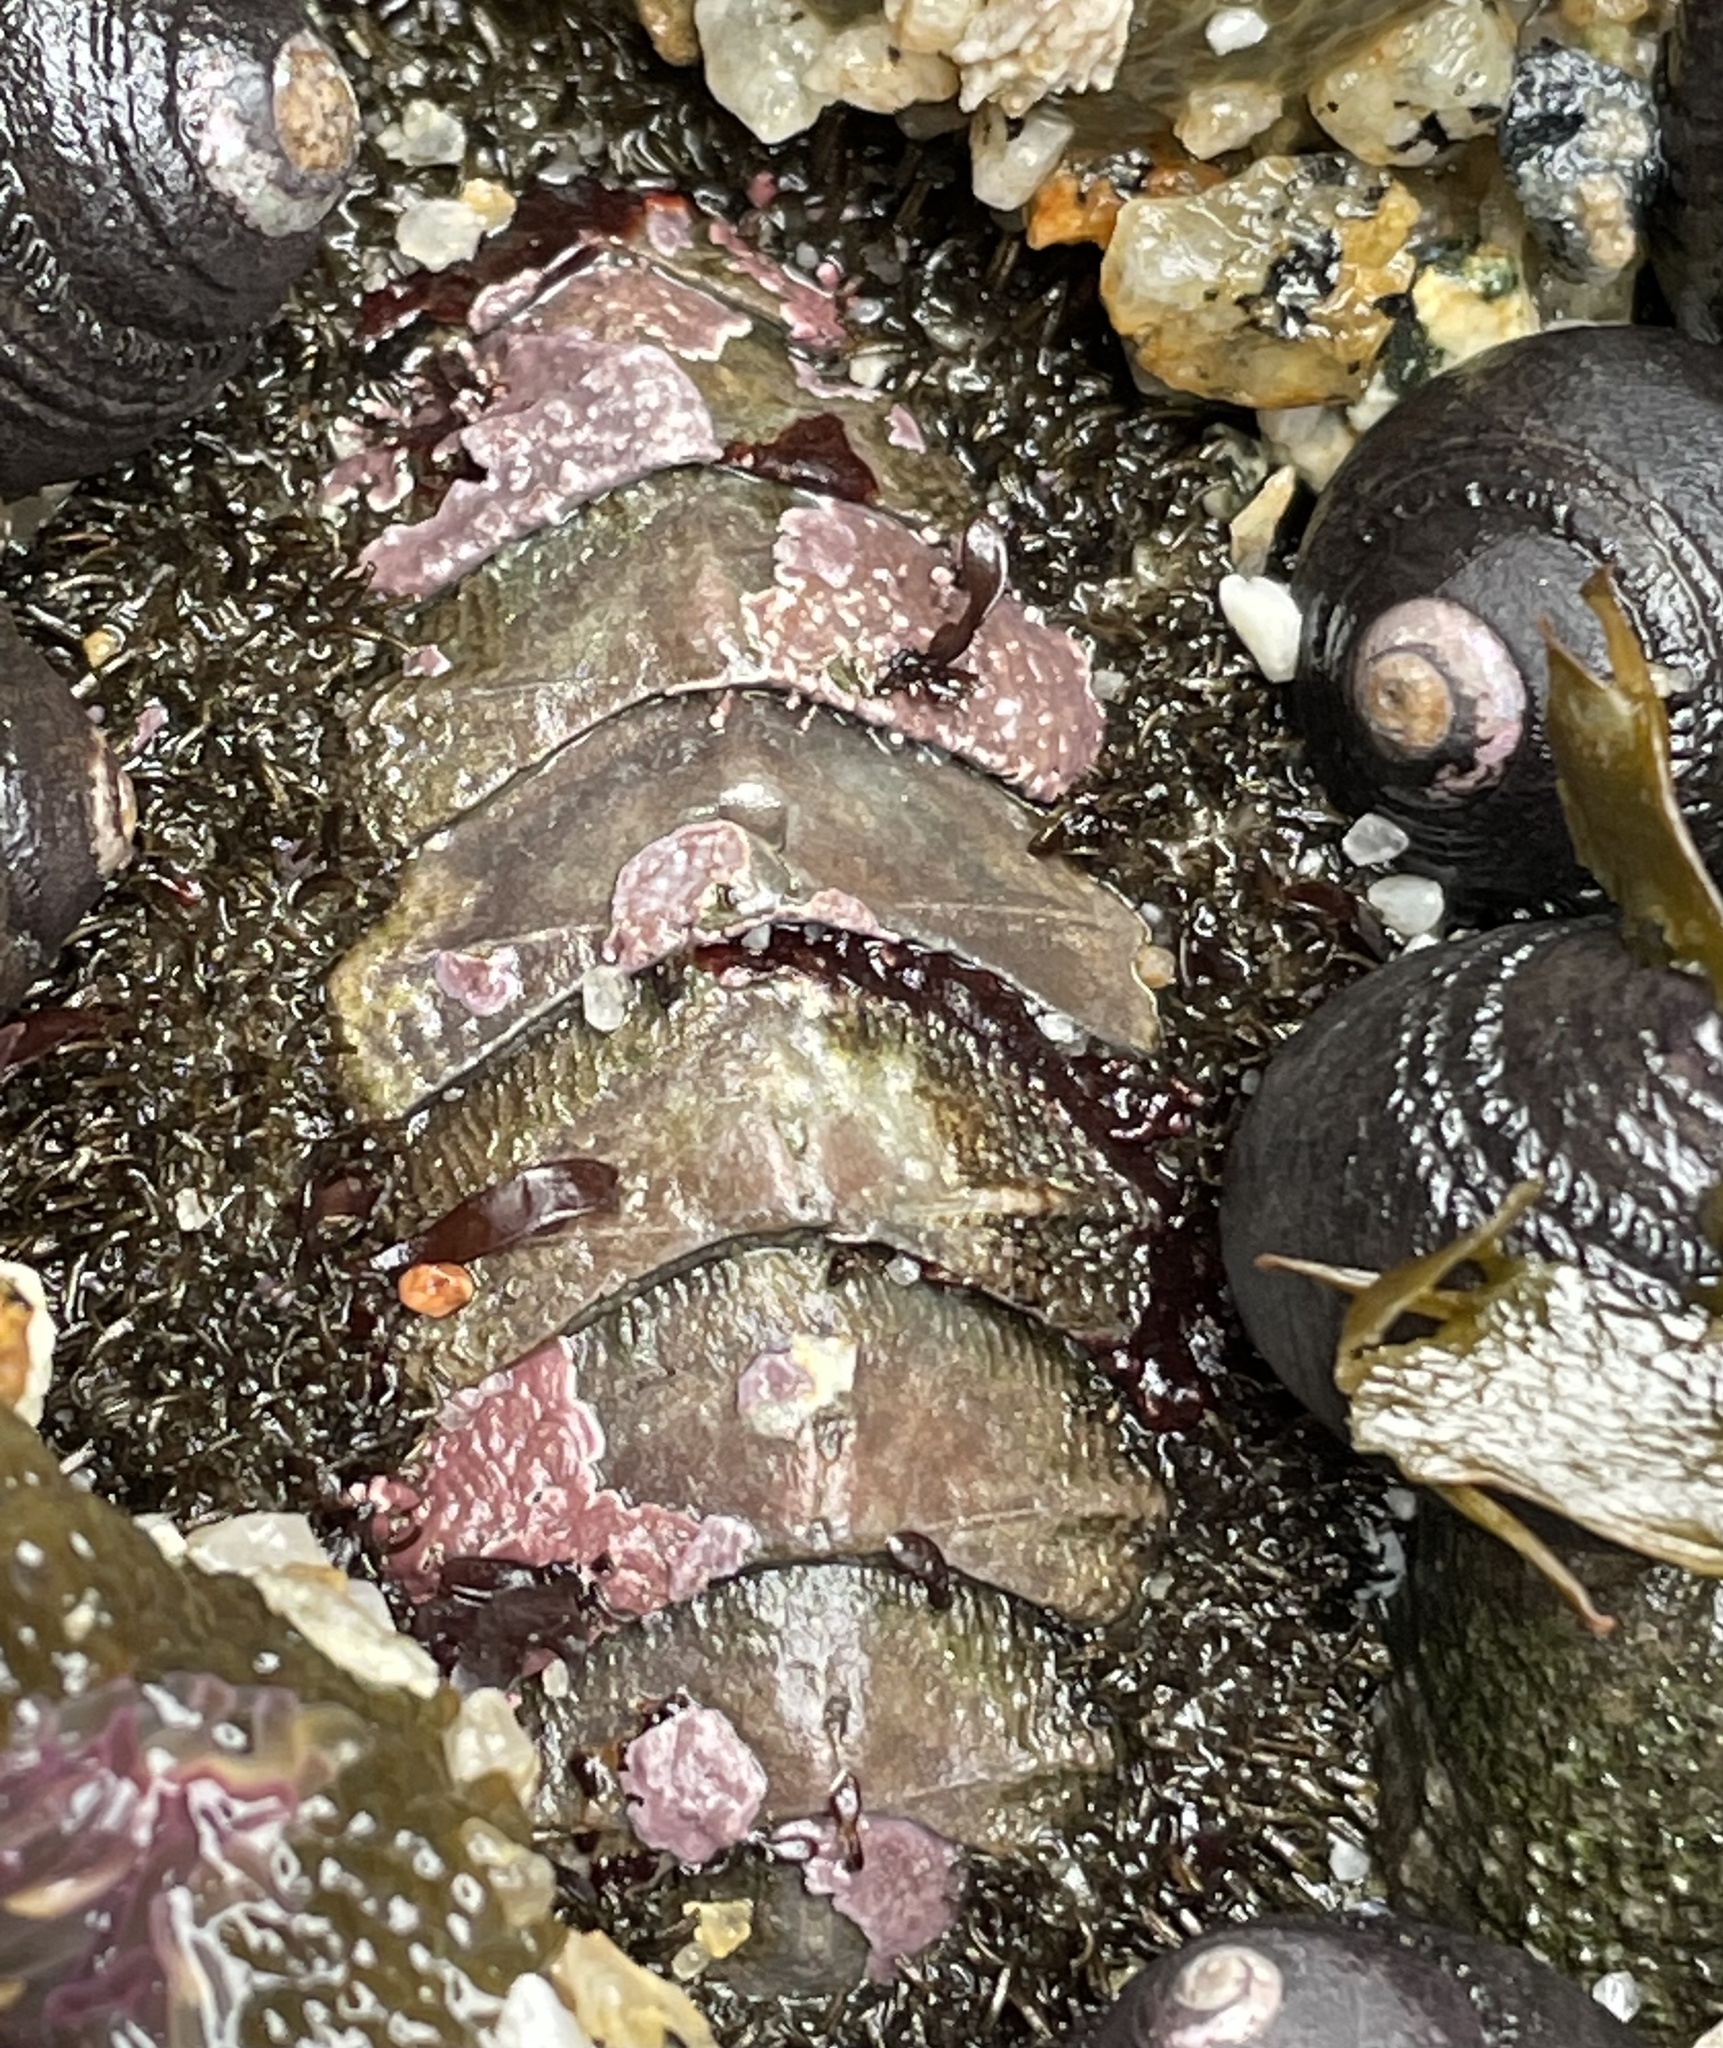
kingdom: Animalia
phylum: Mollusca
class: Gastropoda
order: Trochida
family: Tegulidae
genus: Tegula
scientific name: Tegula funebralis
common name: Black tegula
